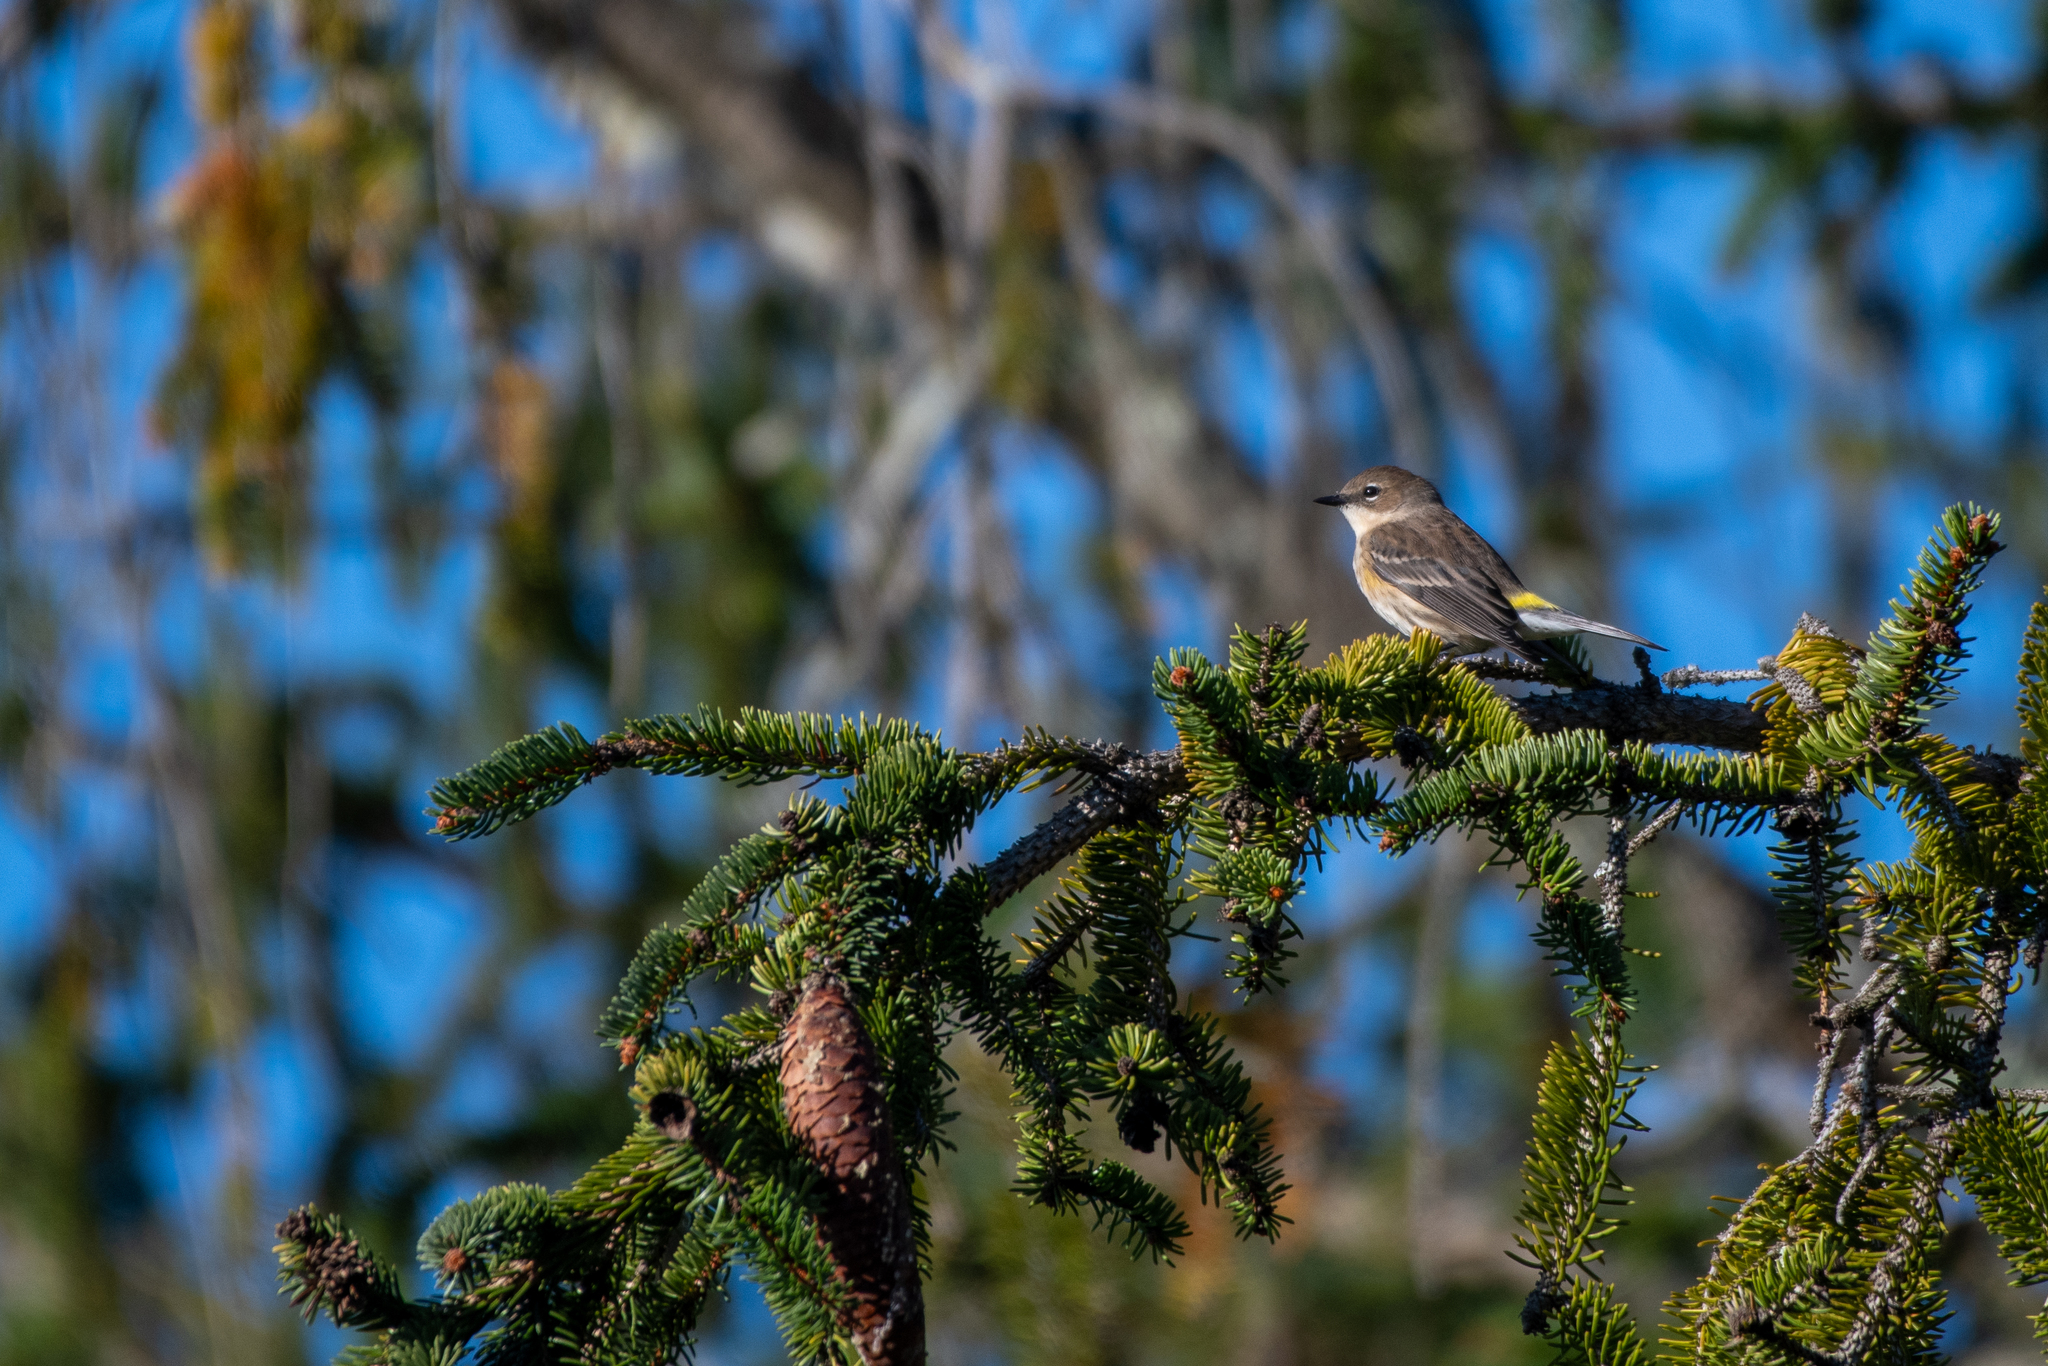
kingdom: Animalia
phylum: Chordata
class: Aves
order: Passeriformes
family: Parulidae
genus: Setophaga
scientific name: Setophaga coronata
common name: Myrtle warbler
